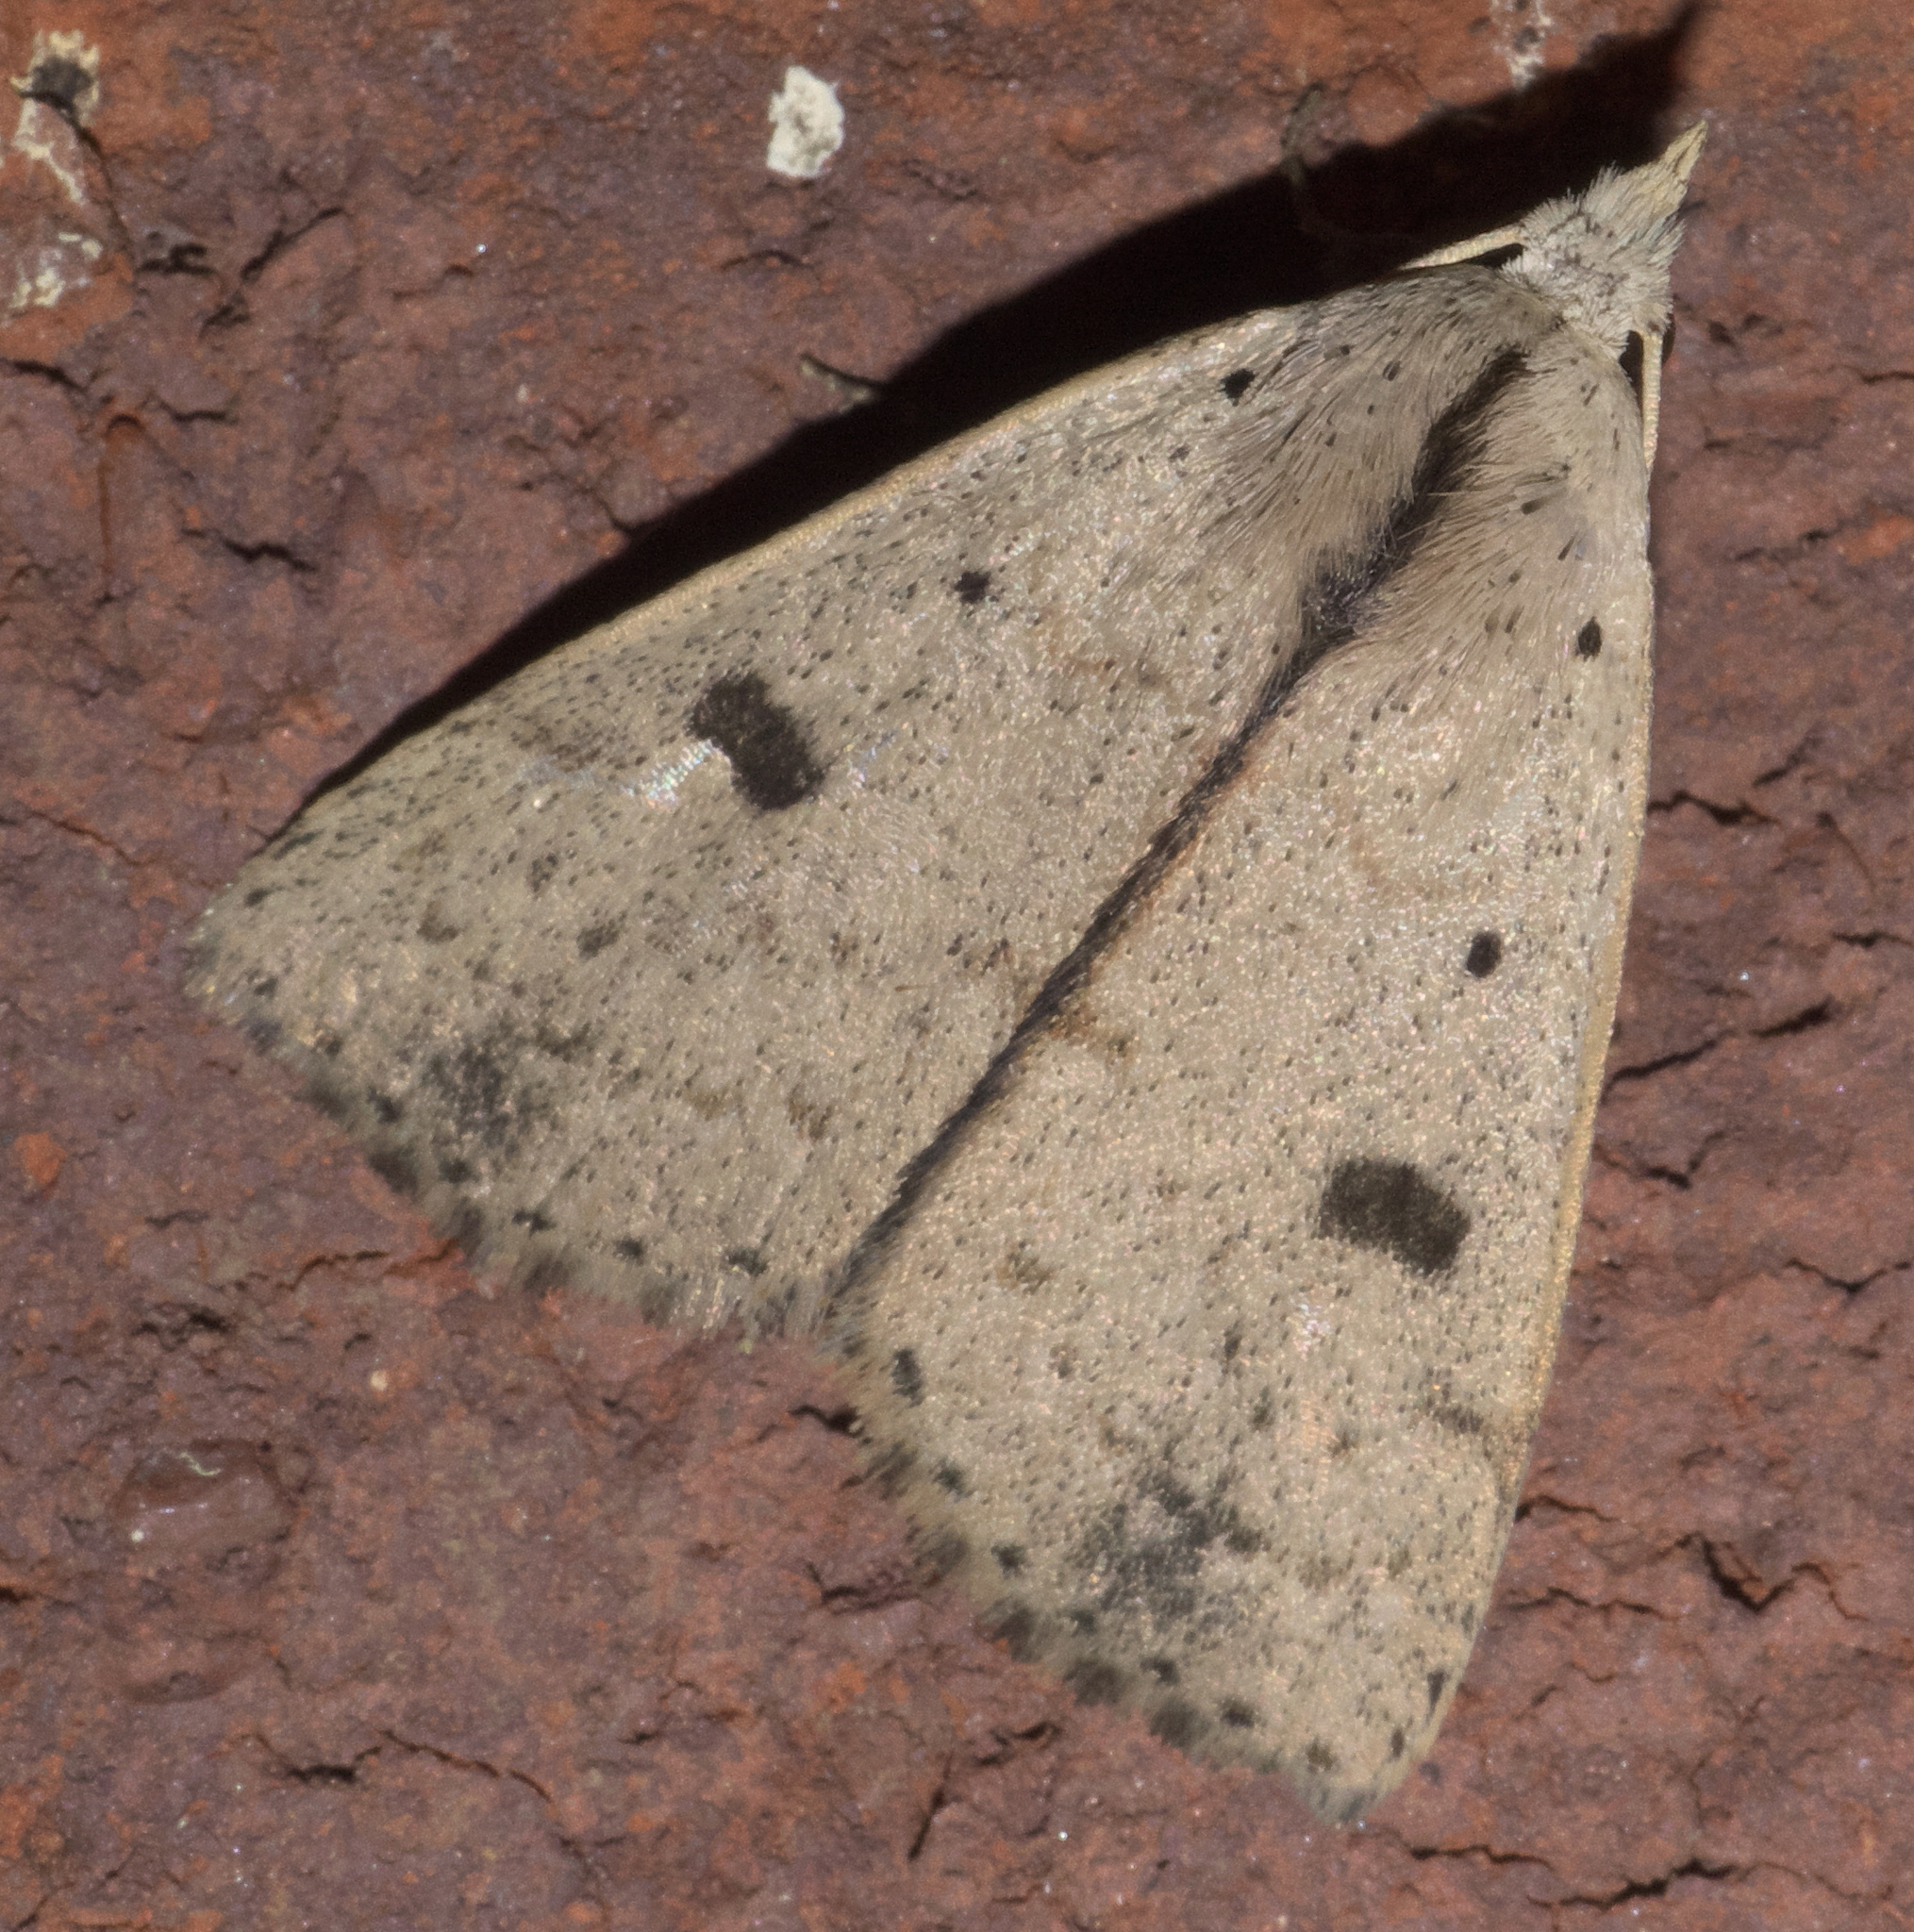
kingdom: Animalia
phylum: Arthropoda
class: Insecta
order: Lepidoptera
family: Erebidae
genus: Scolecocampa
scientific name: Scolecocampa liburna
